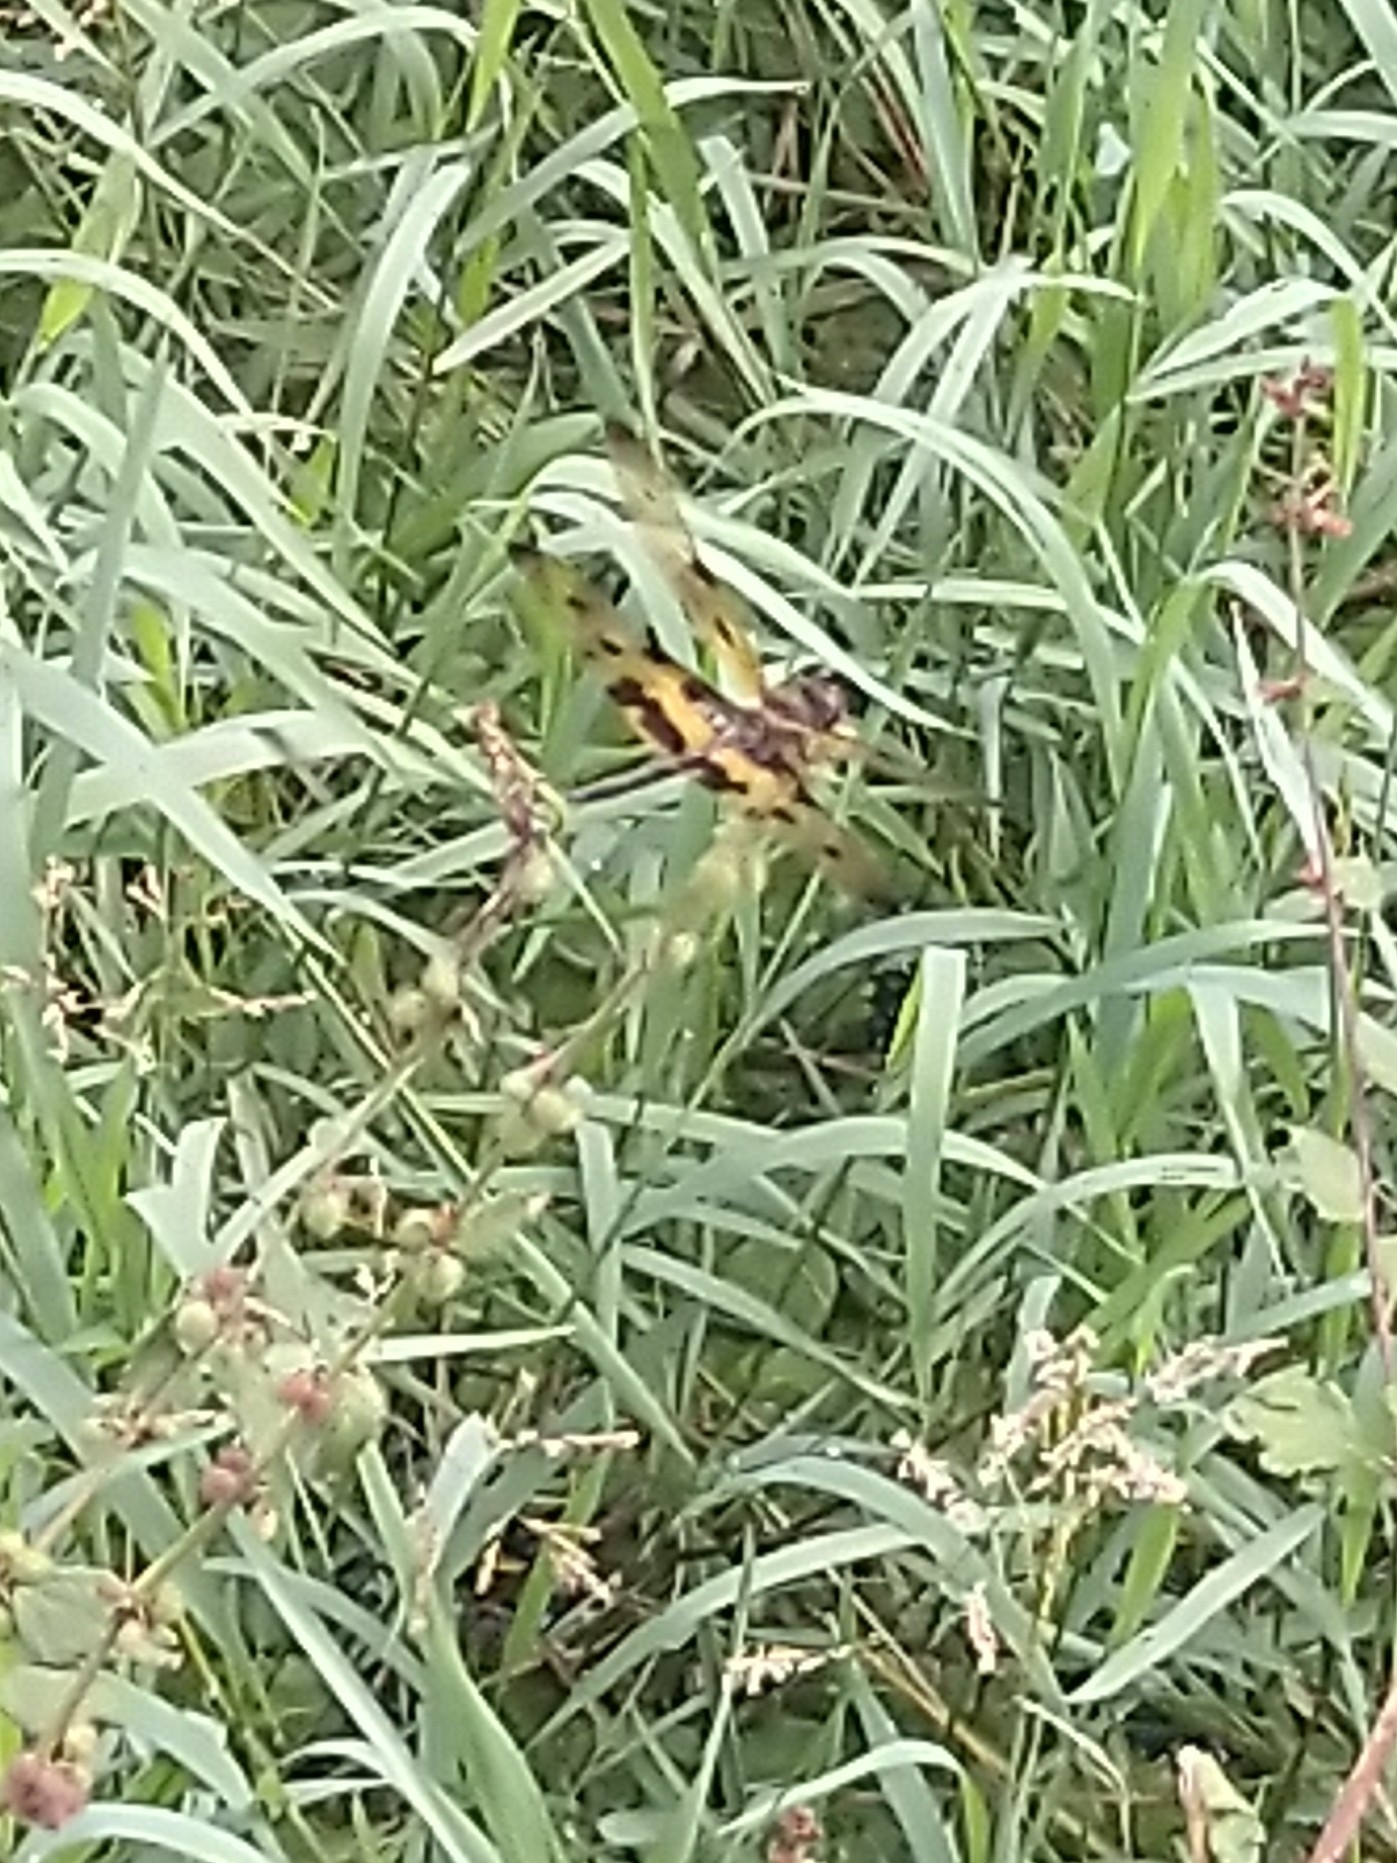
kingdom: Animalia
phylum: Arthropoda
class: Insecta
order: Odonata
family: Libellulidae
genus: Rhyothemis
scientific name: Rhyothemis variegata
